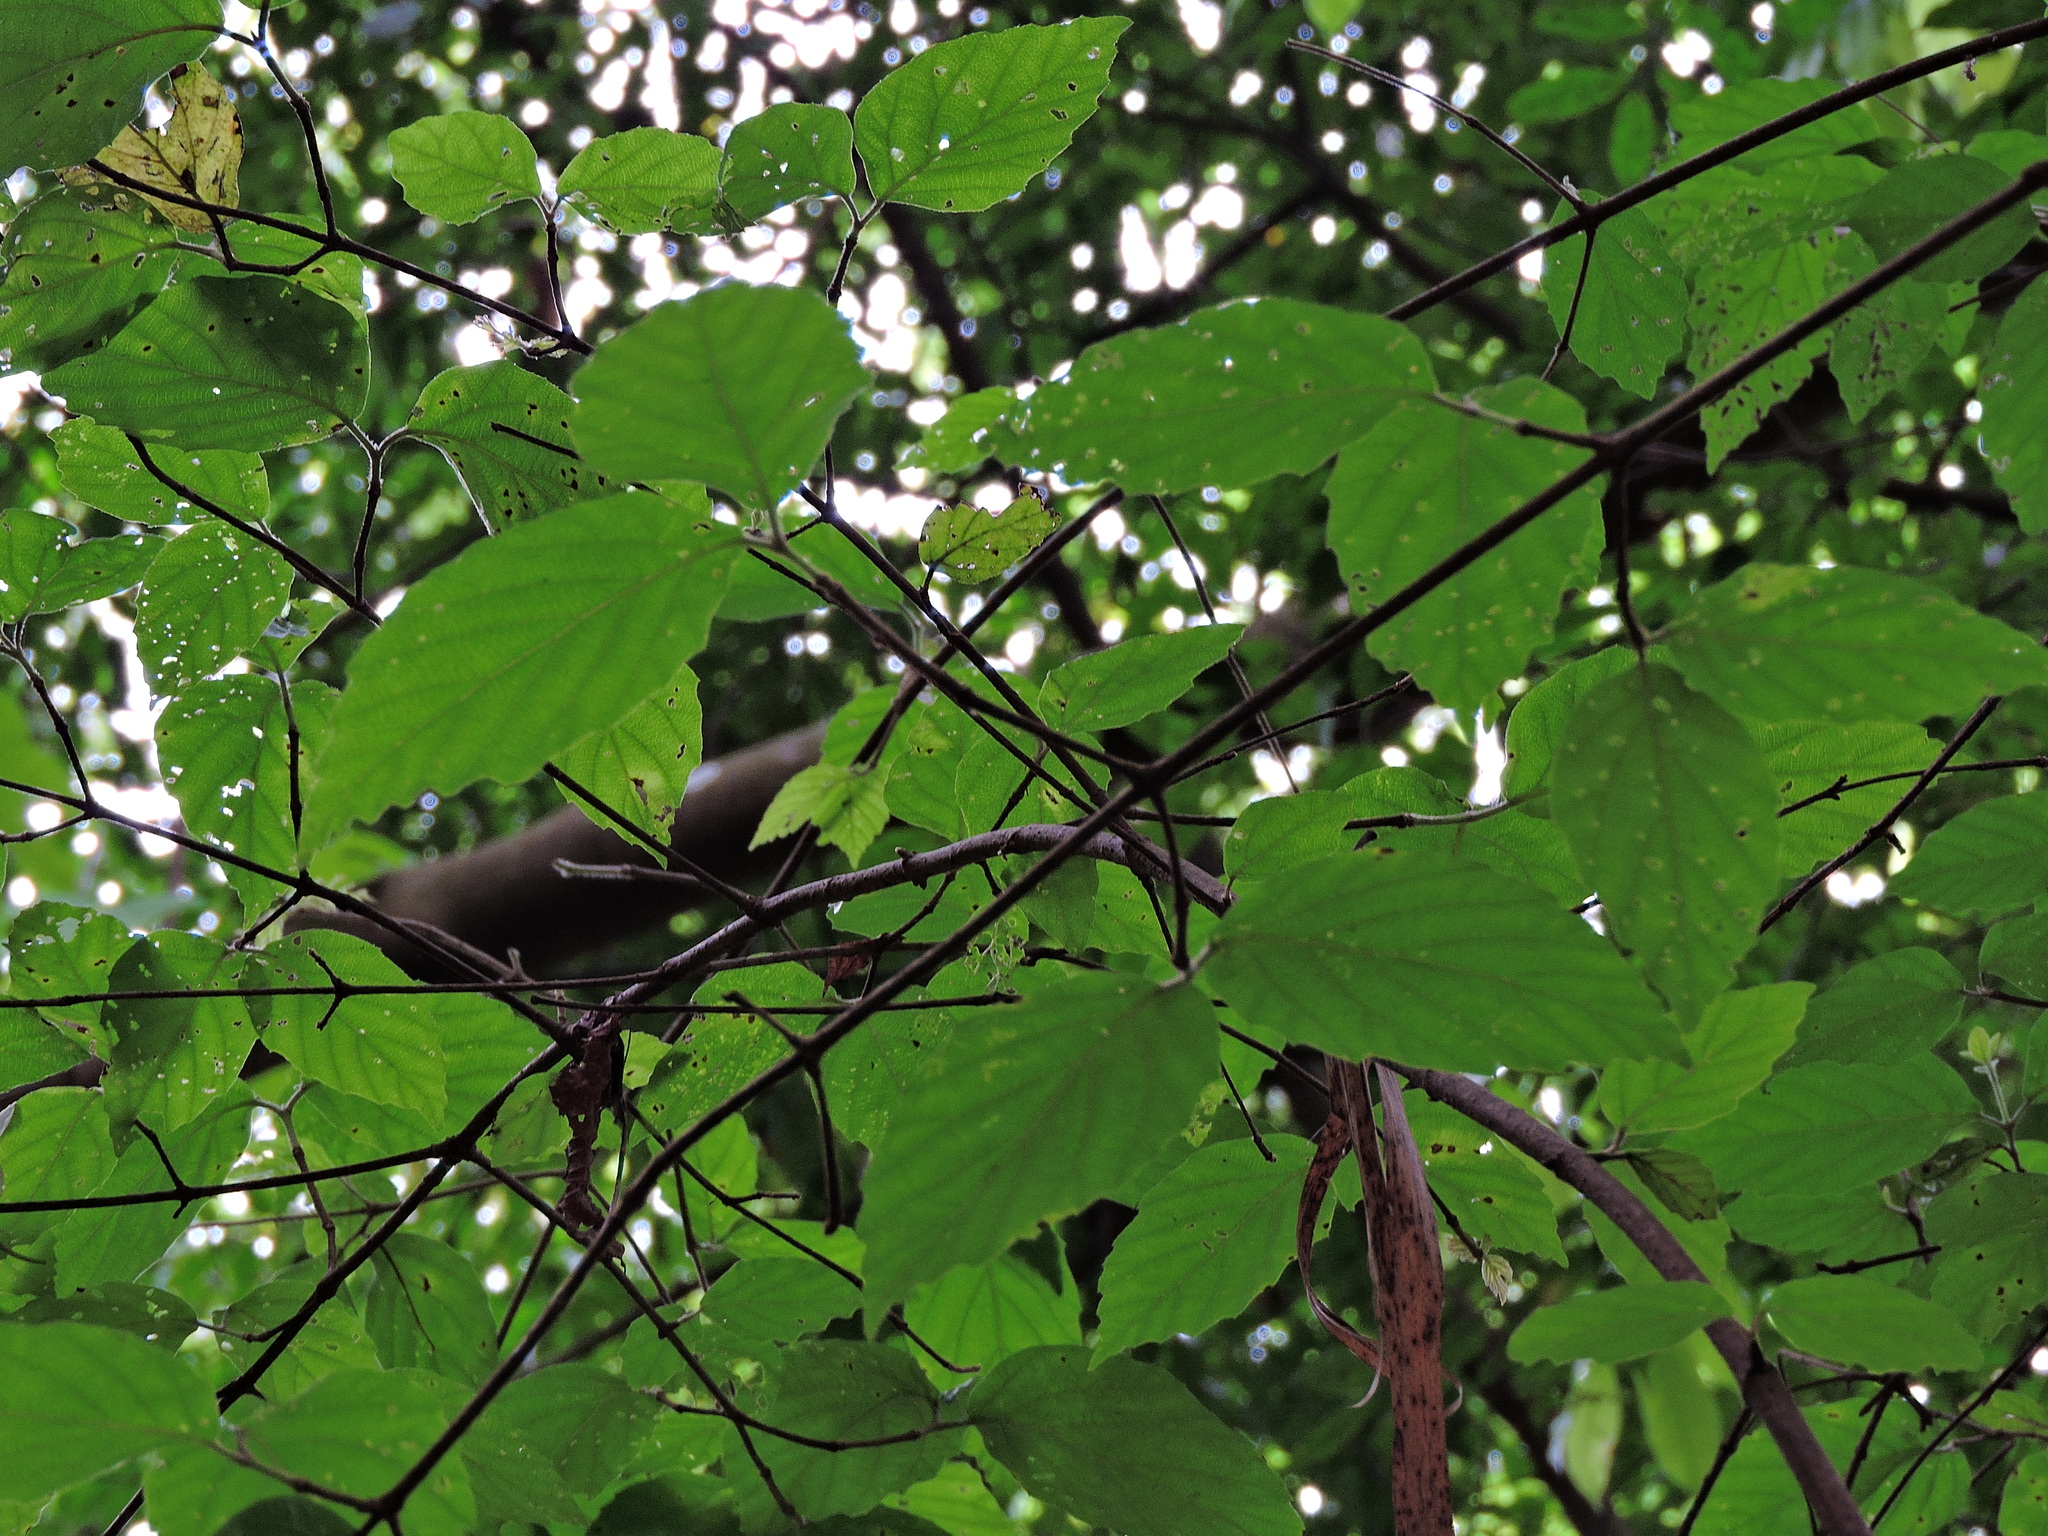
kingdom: Plantae
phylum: Tracheophyta
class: Magnoliopsida
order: Dipsacales
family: Viburnaceae
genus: Viburnum
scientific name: Viburnum luzonicum
